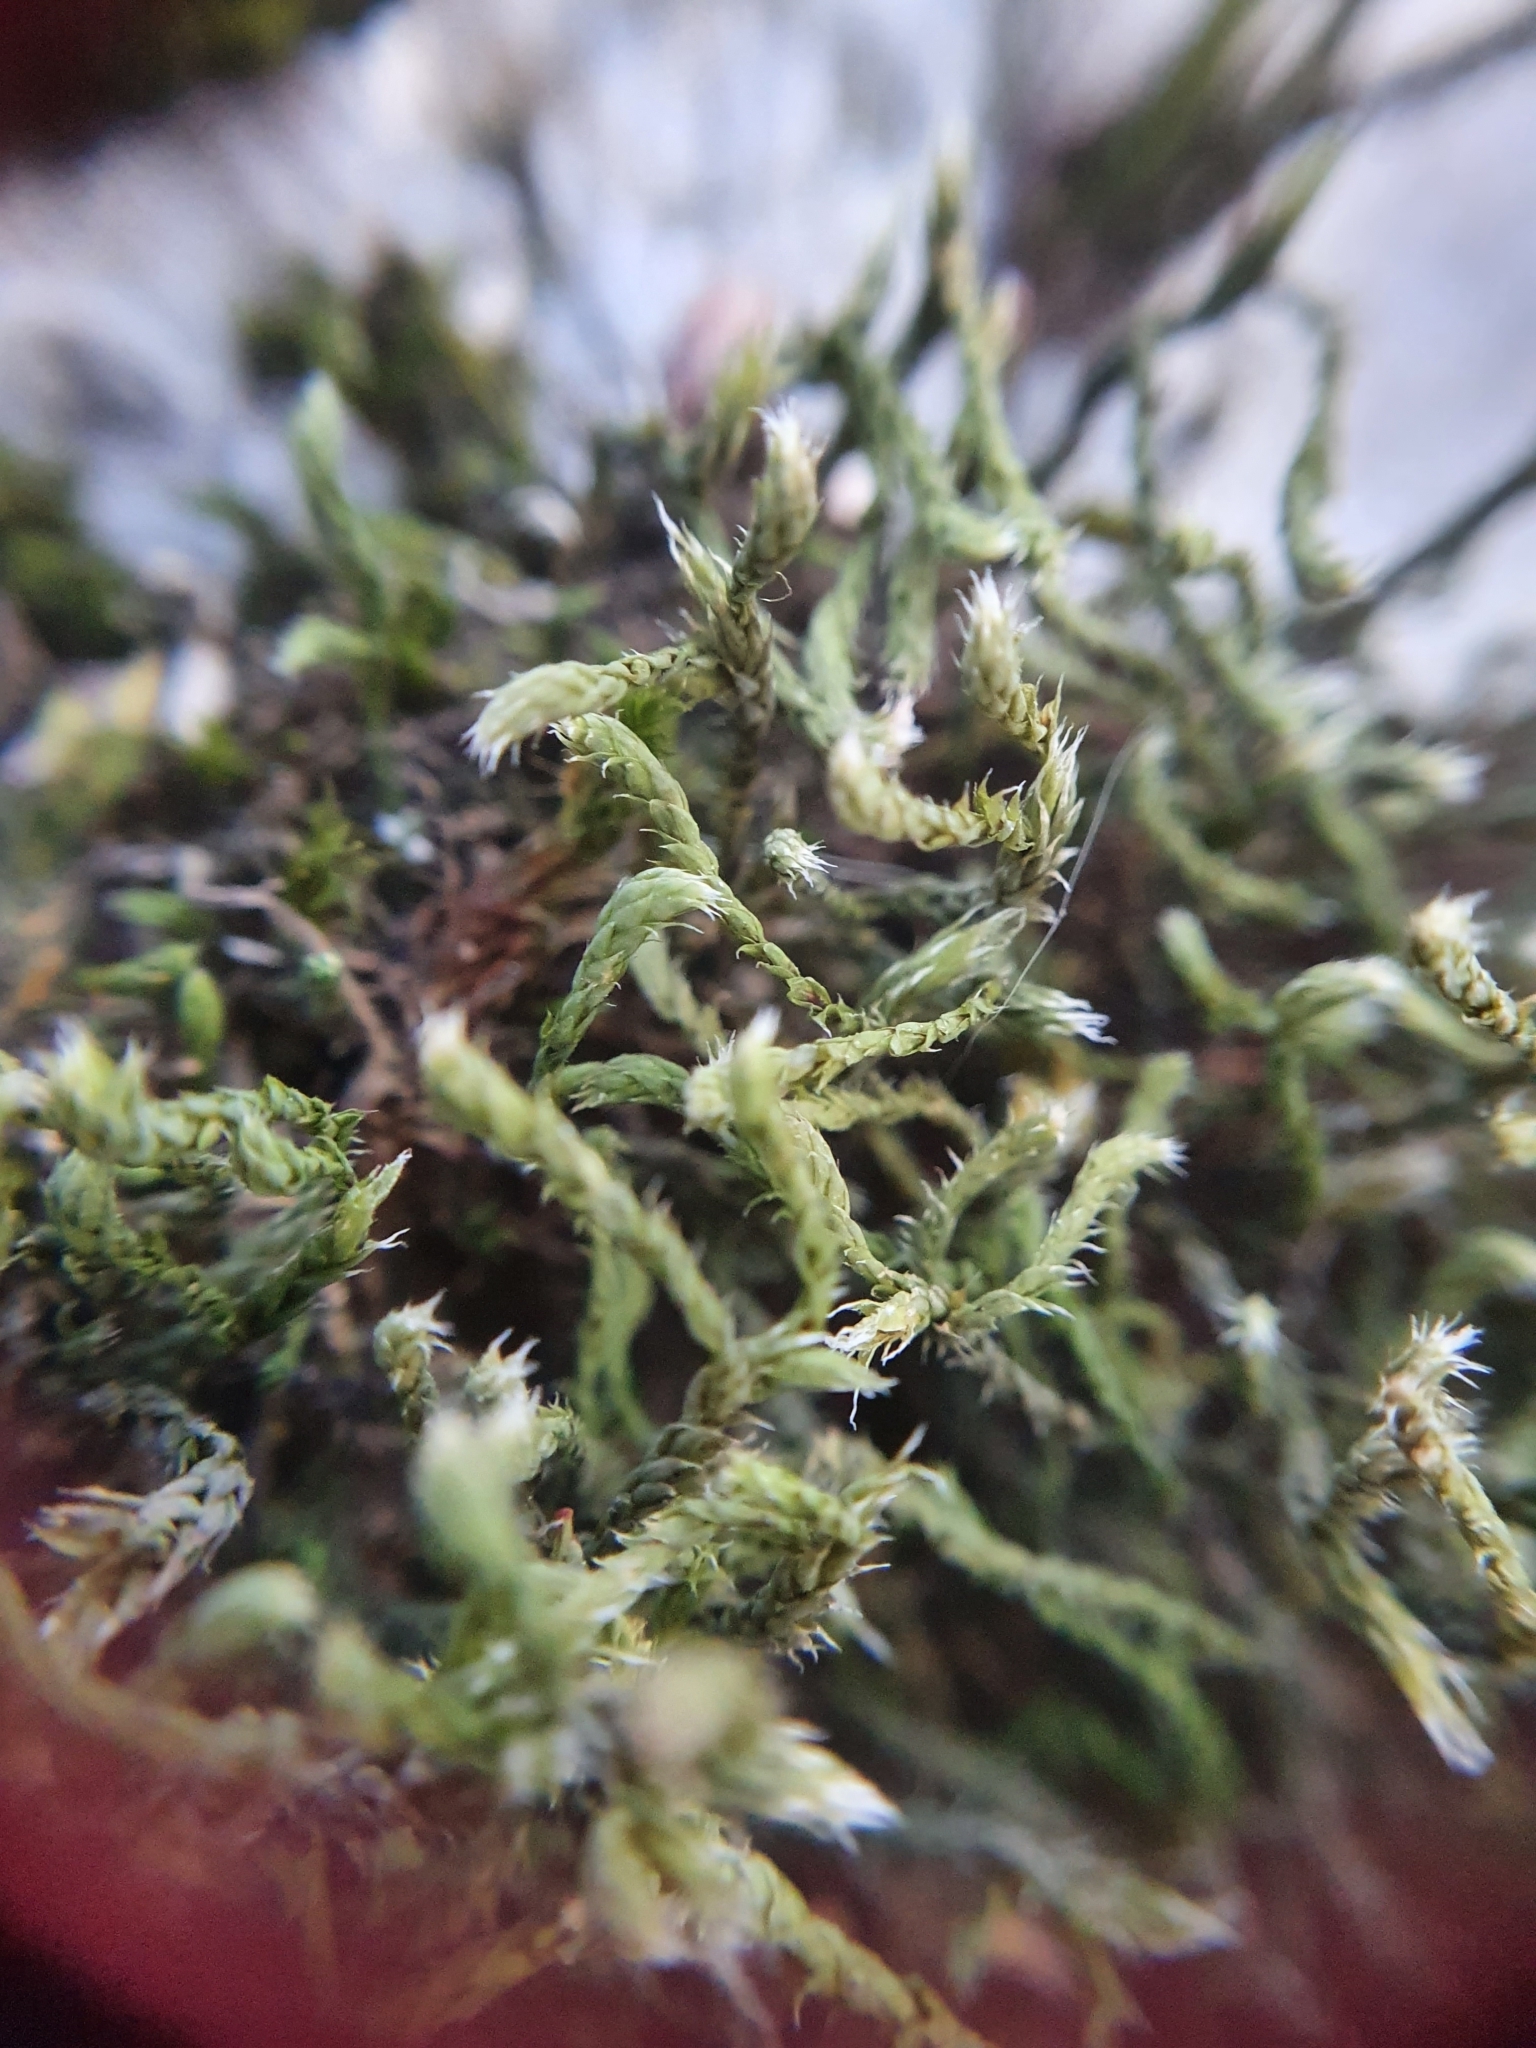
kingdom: Plantae
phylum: Bryophyta
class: Bryopsida
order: Hedwigiales
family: Hedwigiaceae
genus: Hedwigia
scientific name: Hedwigia ciliata
